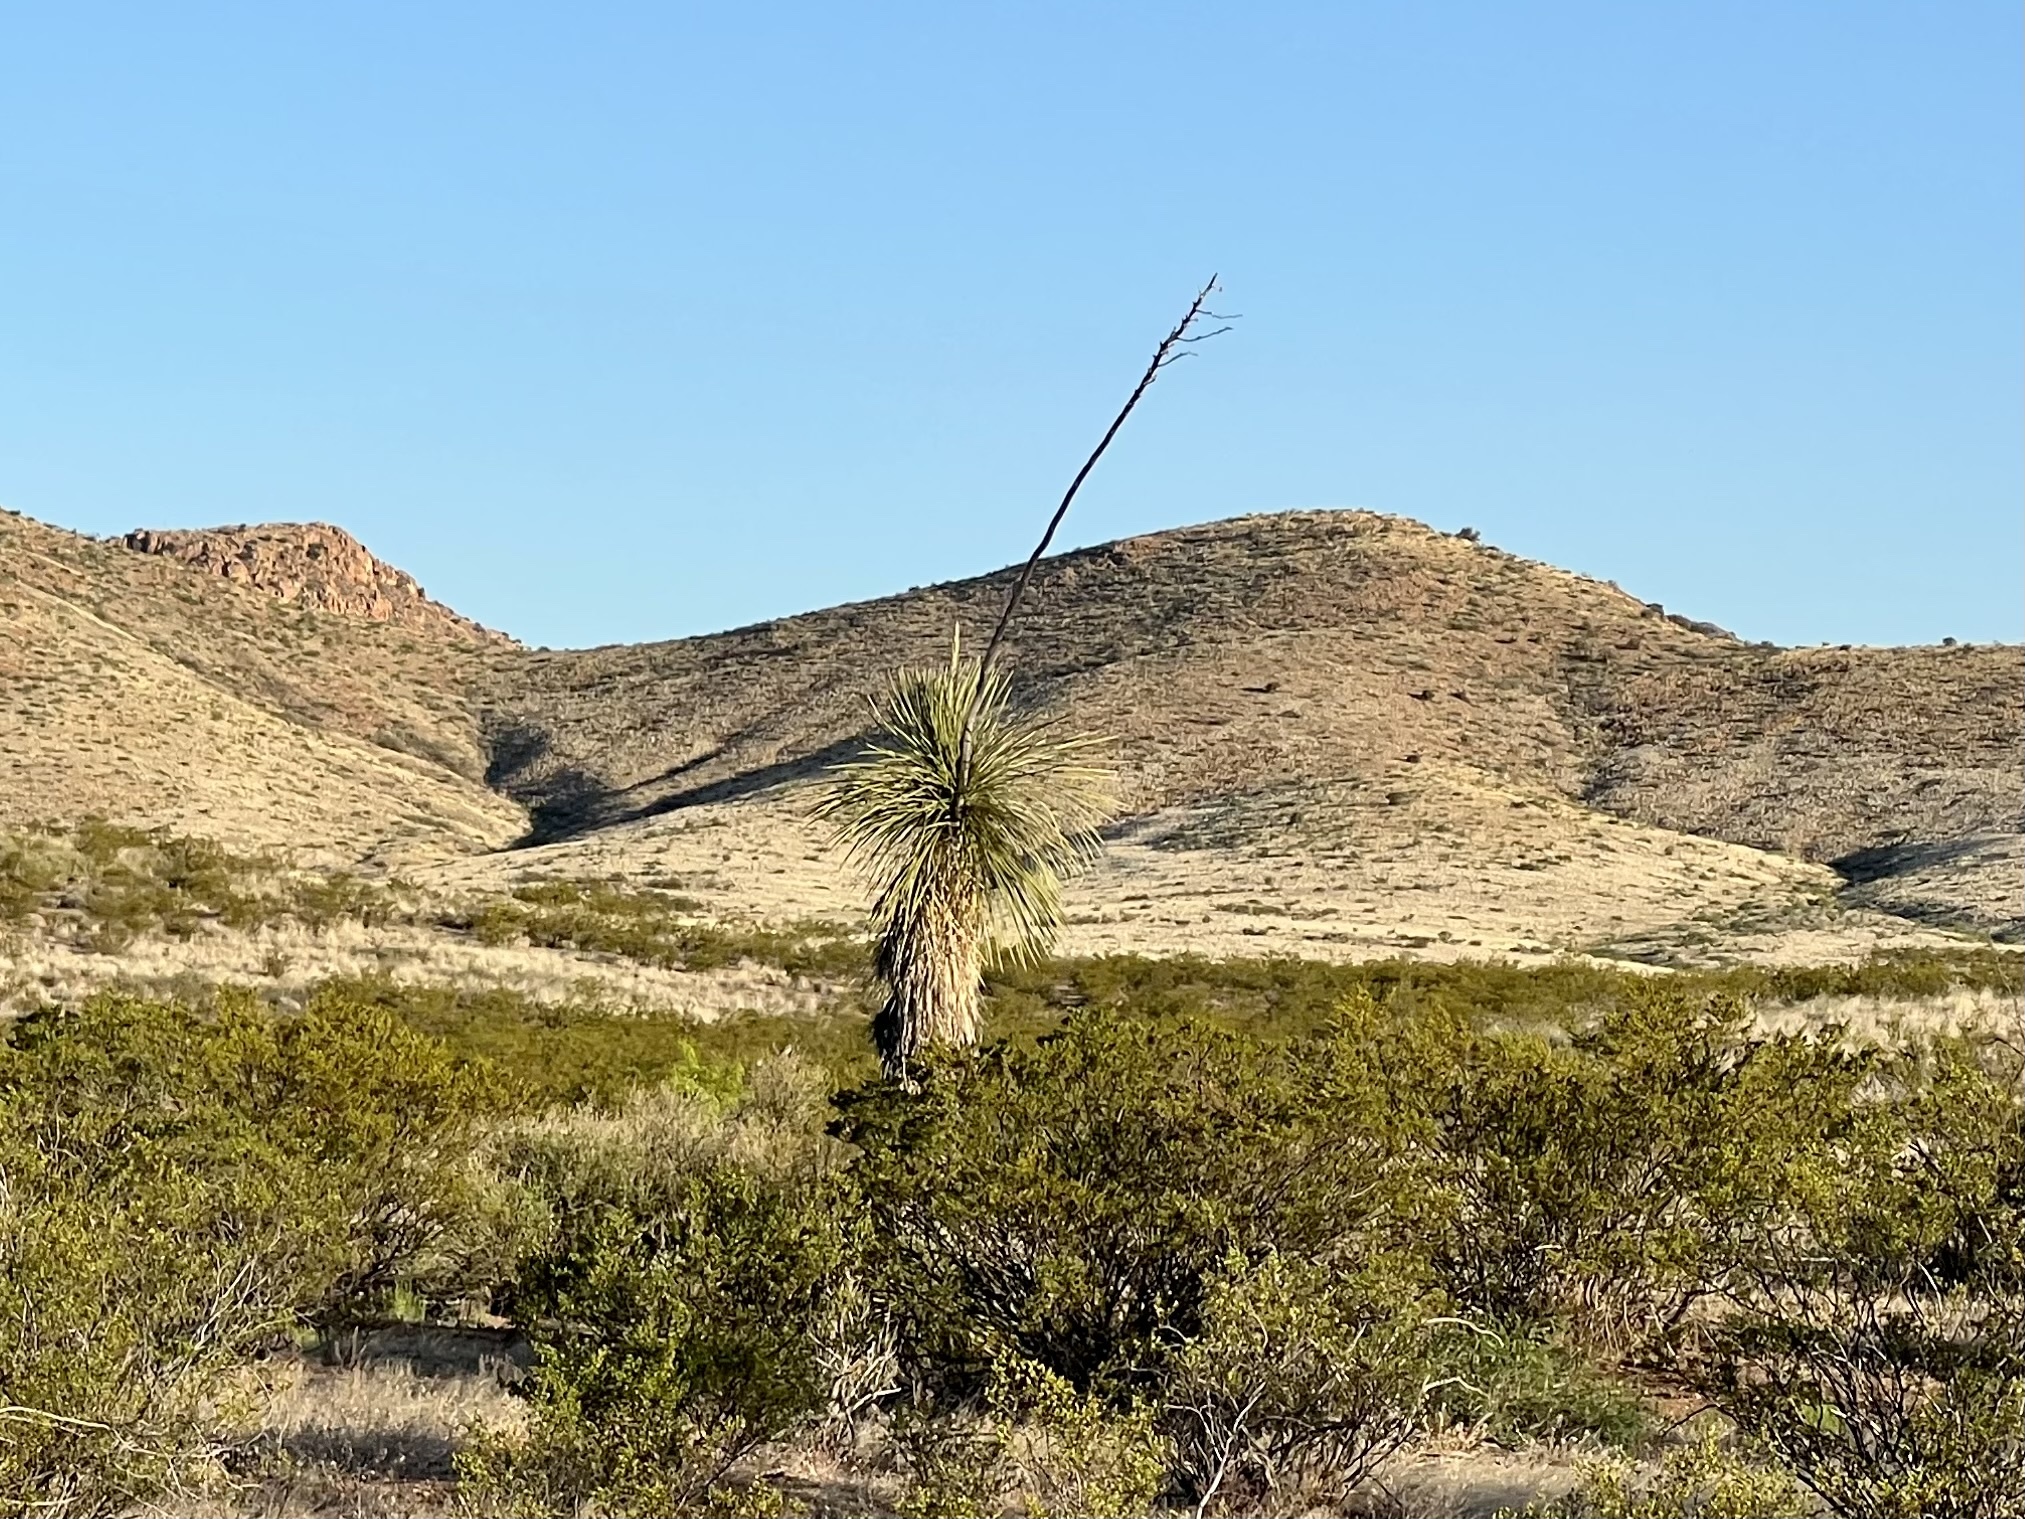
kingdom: Plantae
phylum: Tracheophyta
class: Liliopsida
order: Asparagales
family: Asparagaceae
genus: Yucca
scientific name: Yucca elata
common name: Palmella
